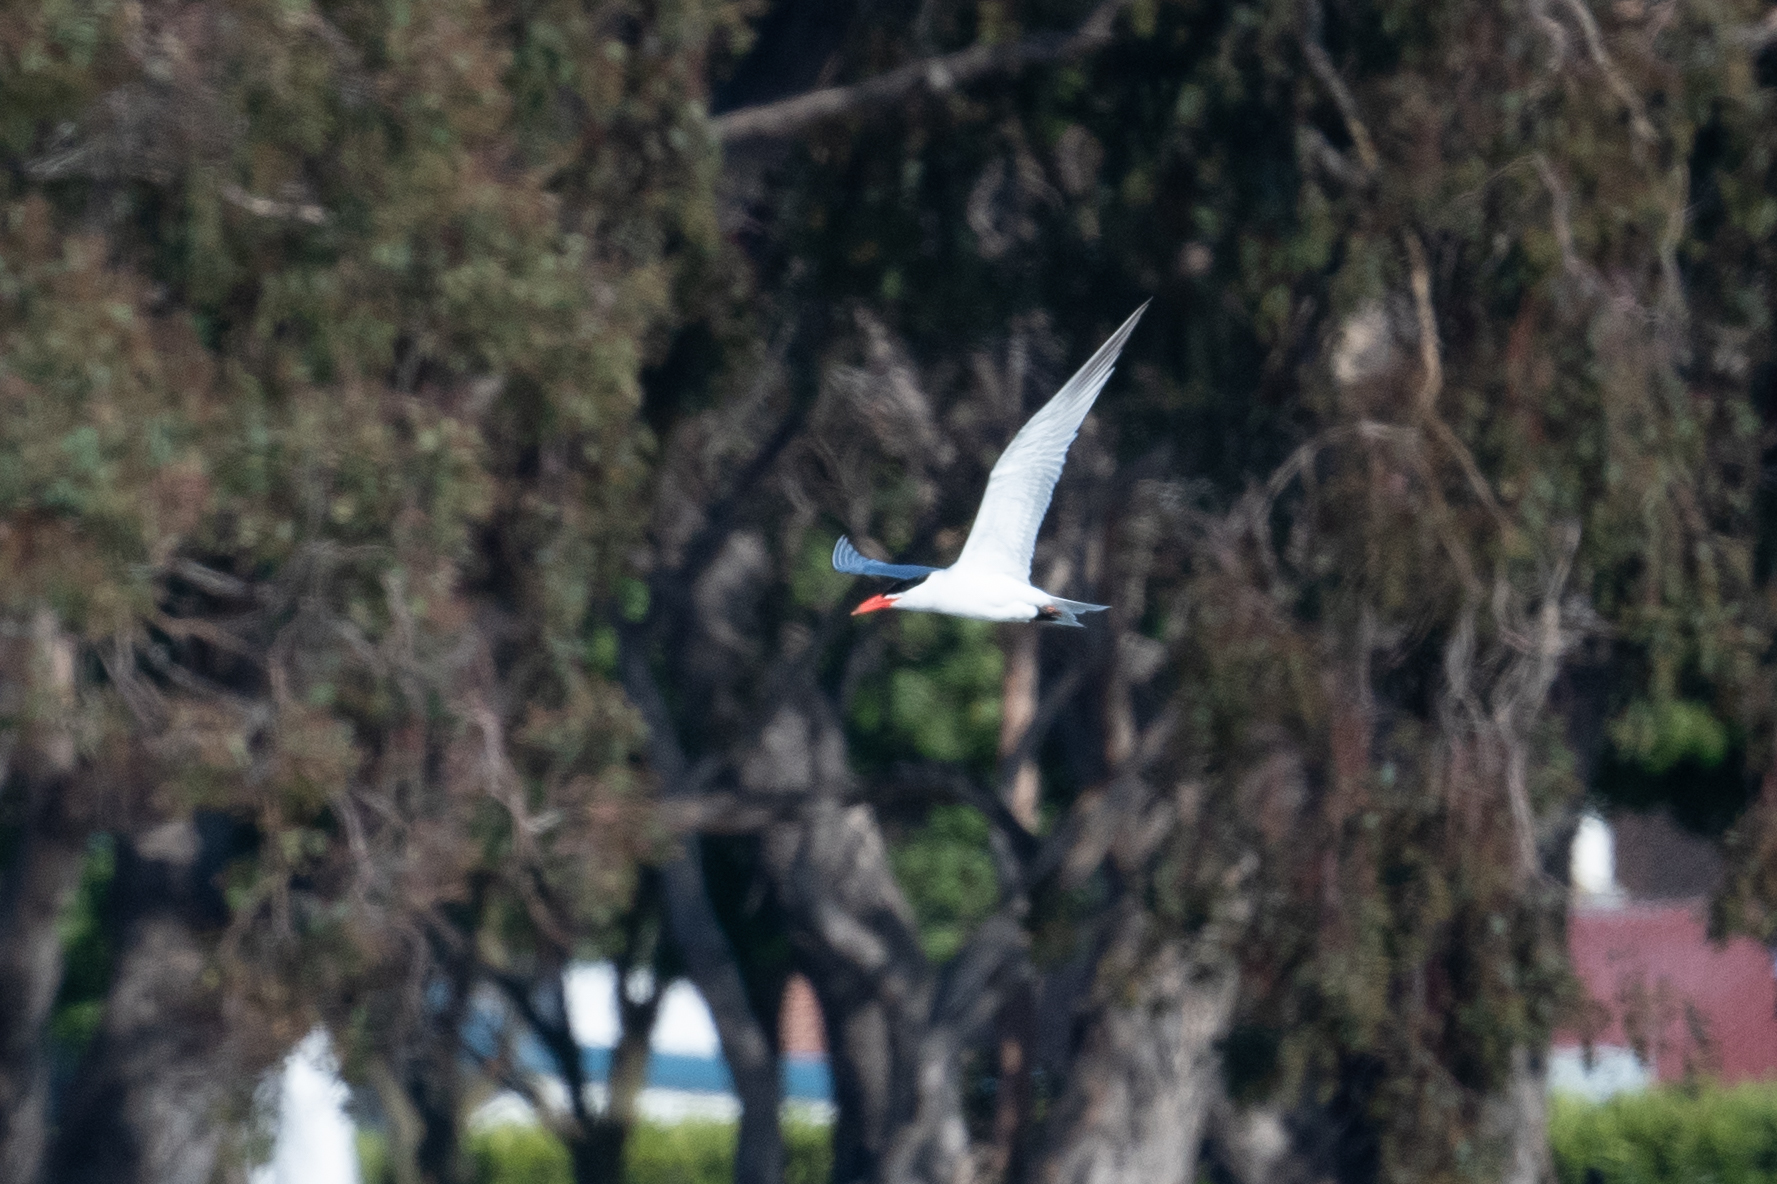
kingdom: Animalia
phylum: Chordata
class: Aves
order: Charadriiformes
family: Laridae
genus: Hydroprogne
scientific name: Hydroprogne caspia
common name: Caspian tern
